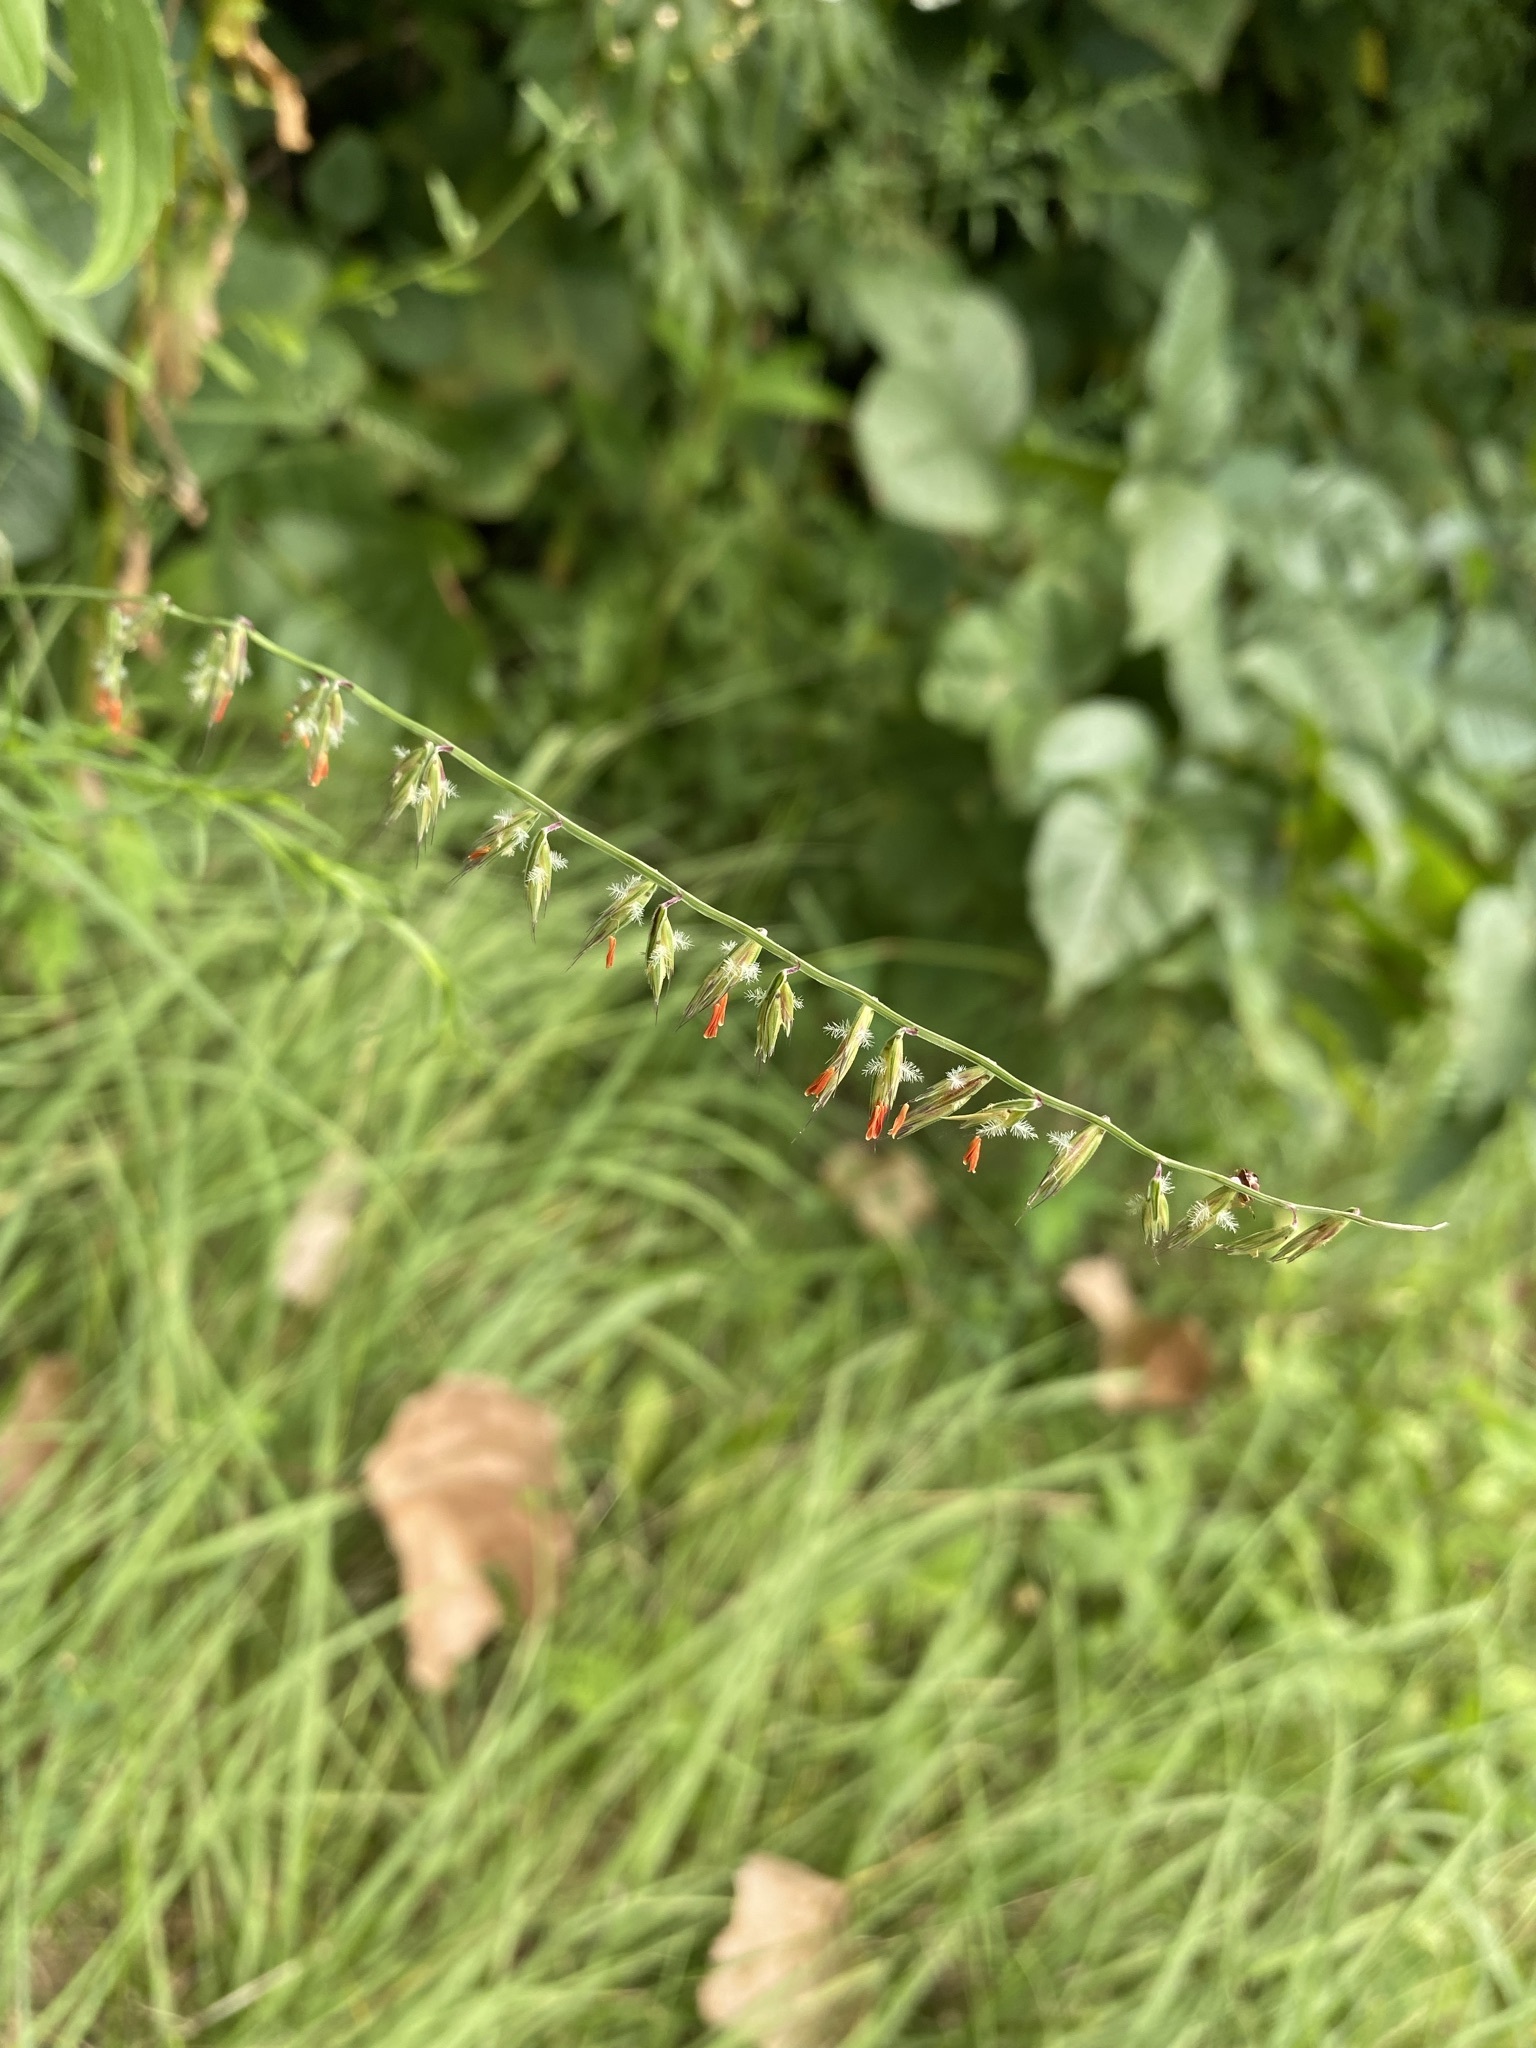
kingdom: Plantae
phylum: Tracheophyta
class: Liliopsida
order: Poales
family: Poaceae
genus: Bouteloua
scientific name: Bouteloua curtipendula
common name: Side-oats grama
